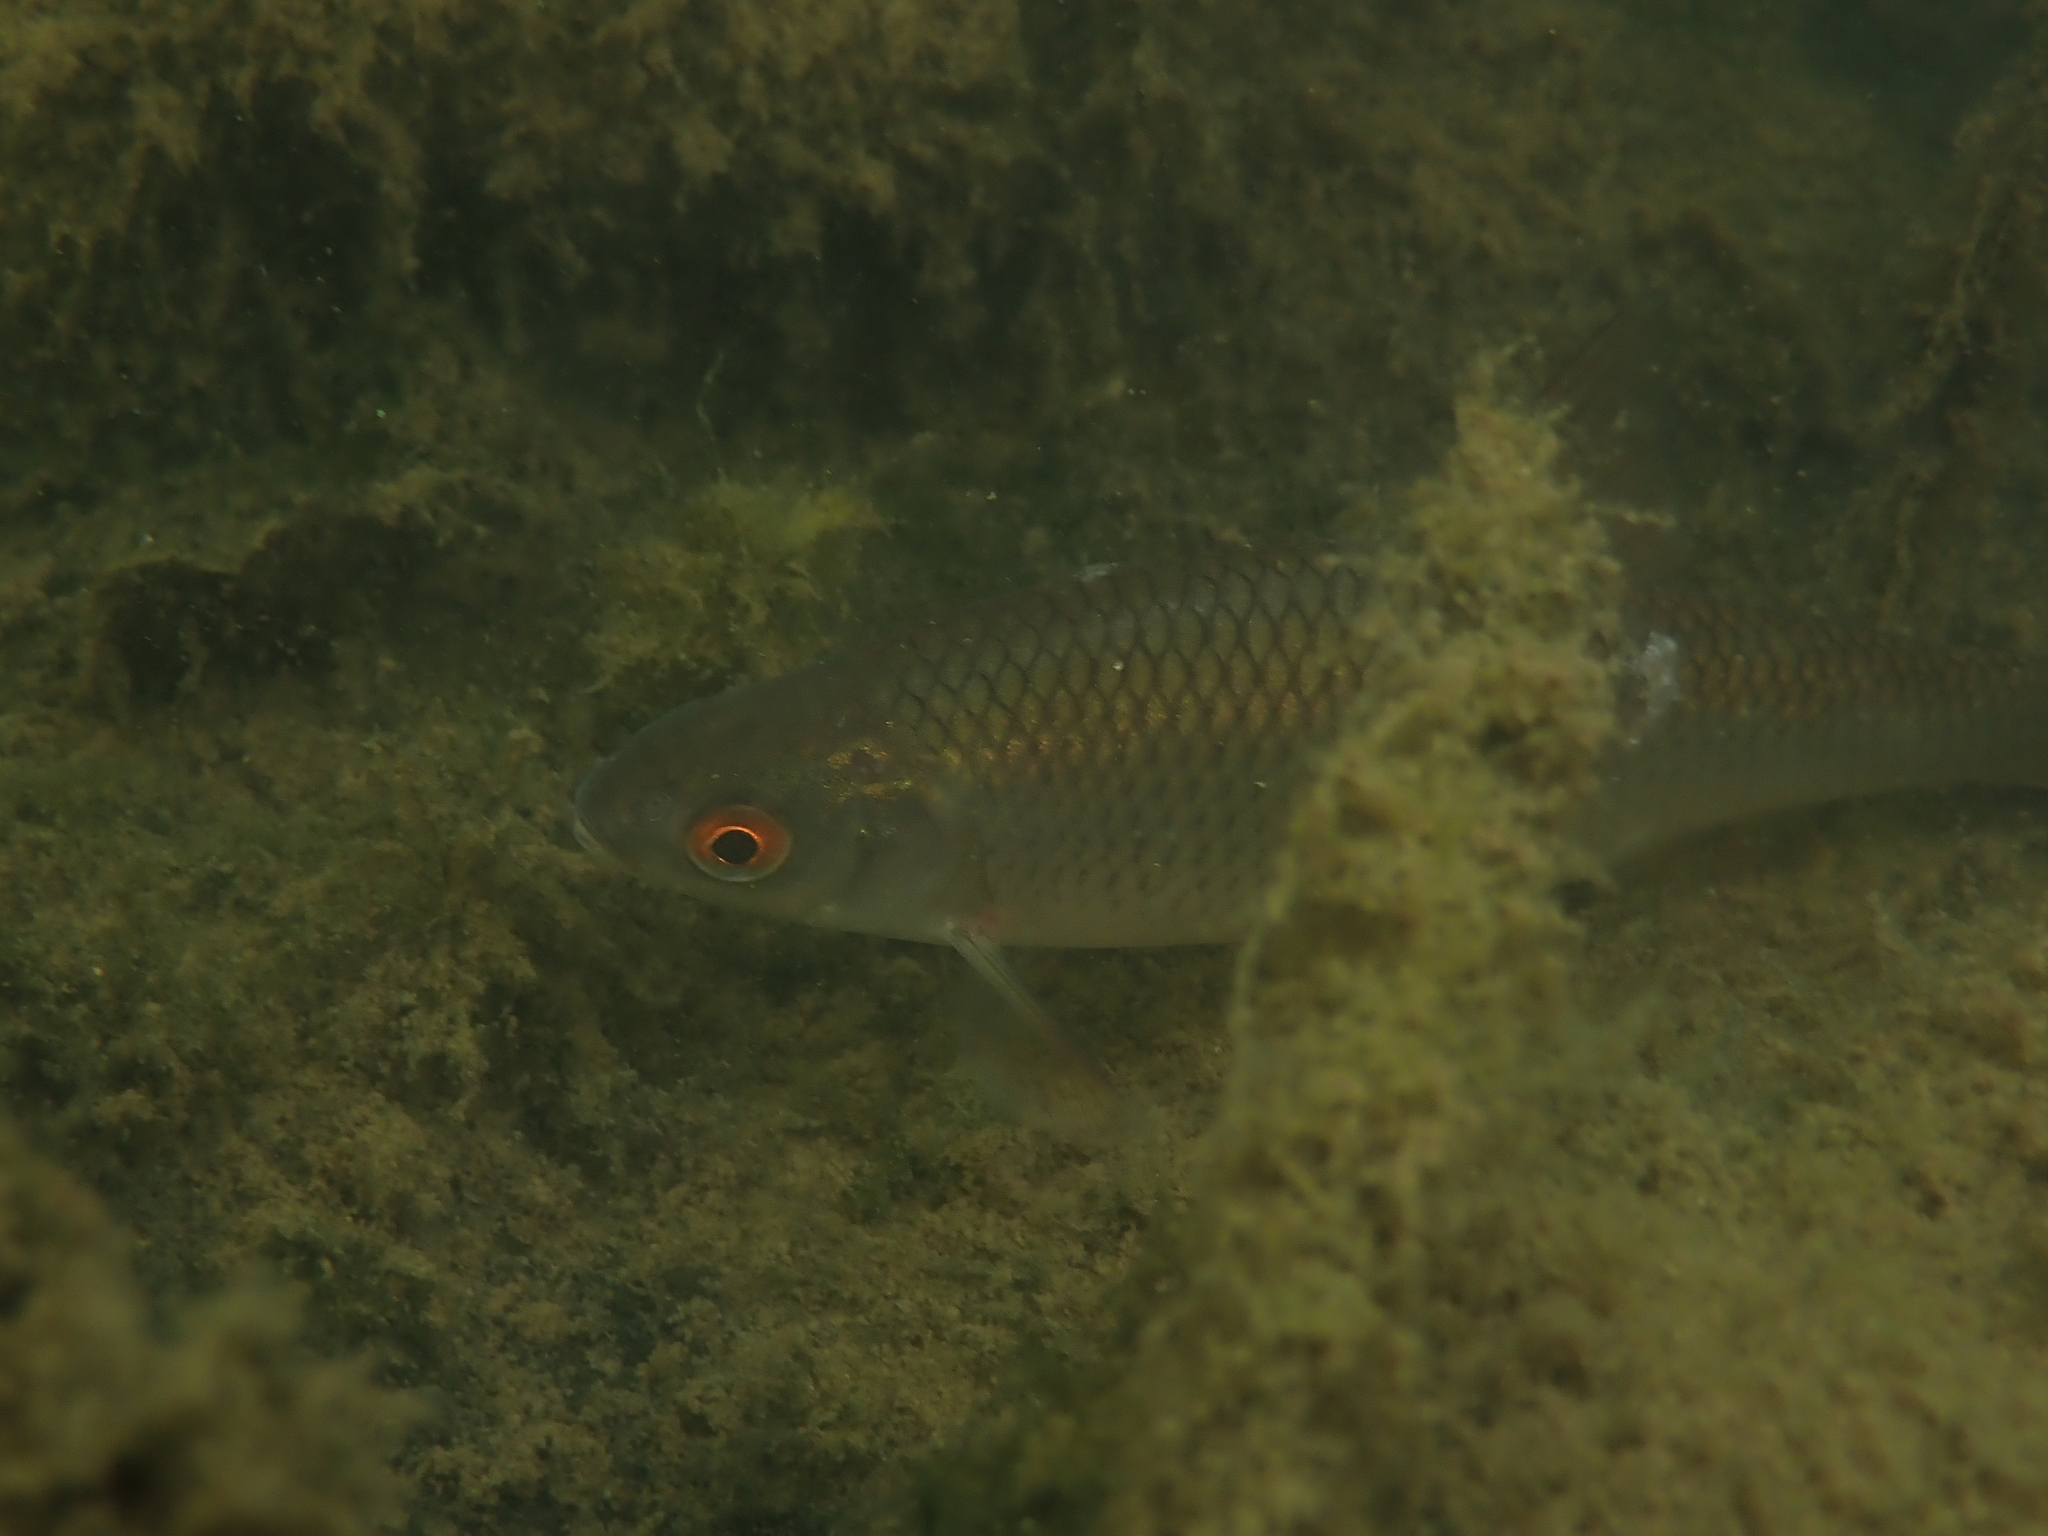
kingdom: Animalia
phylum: Chordata
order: Cypriniformes
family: Cyprinidae
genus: Rutilus
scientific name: Rutilus rutilus
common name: Roach
